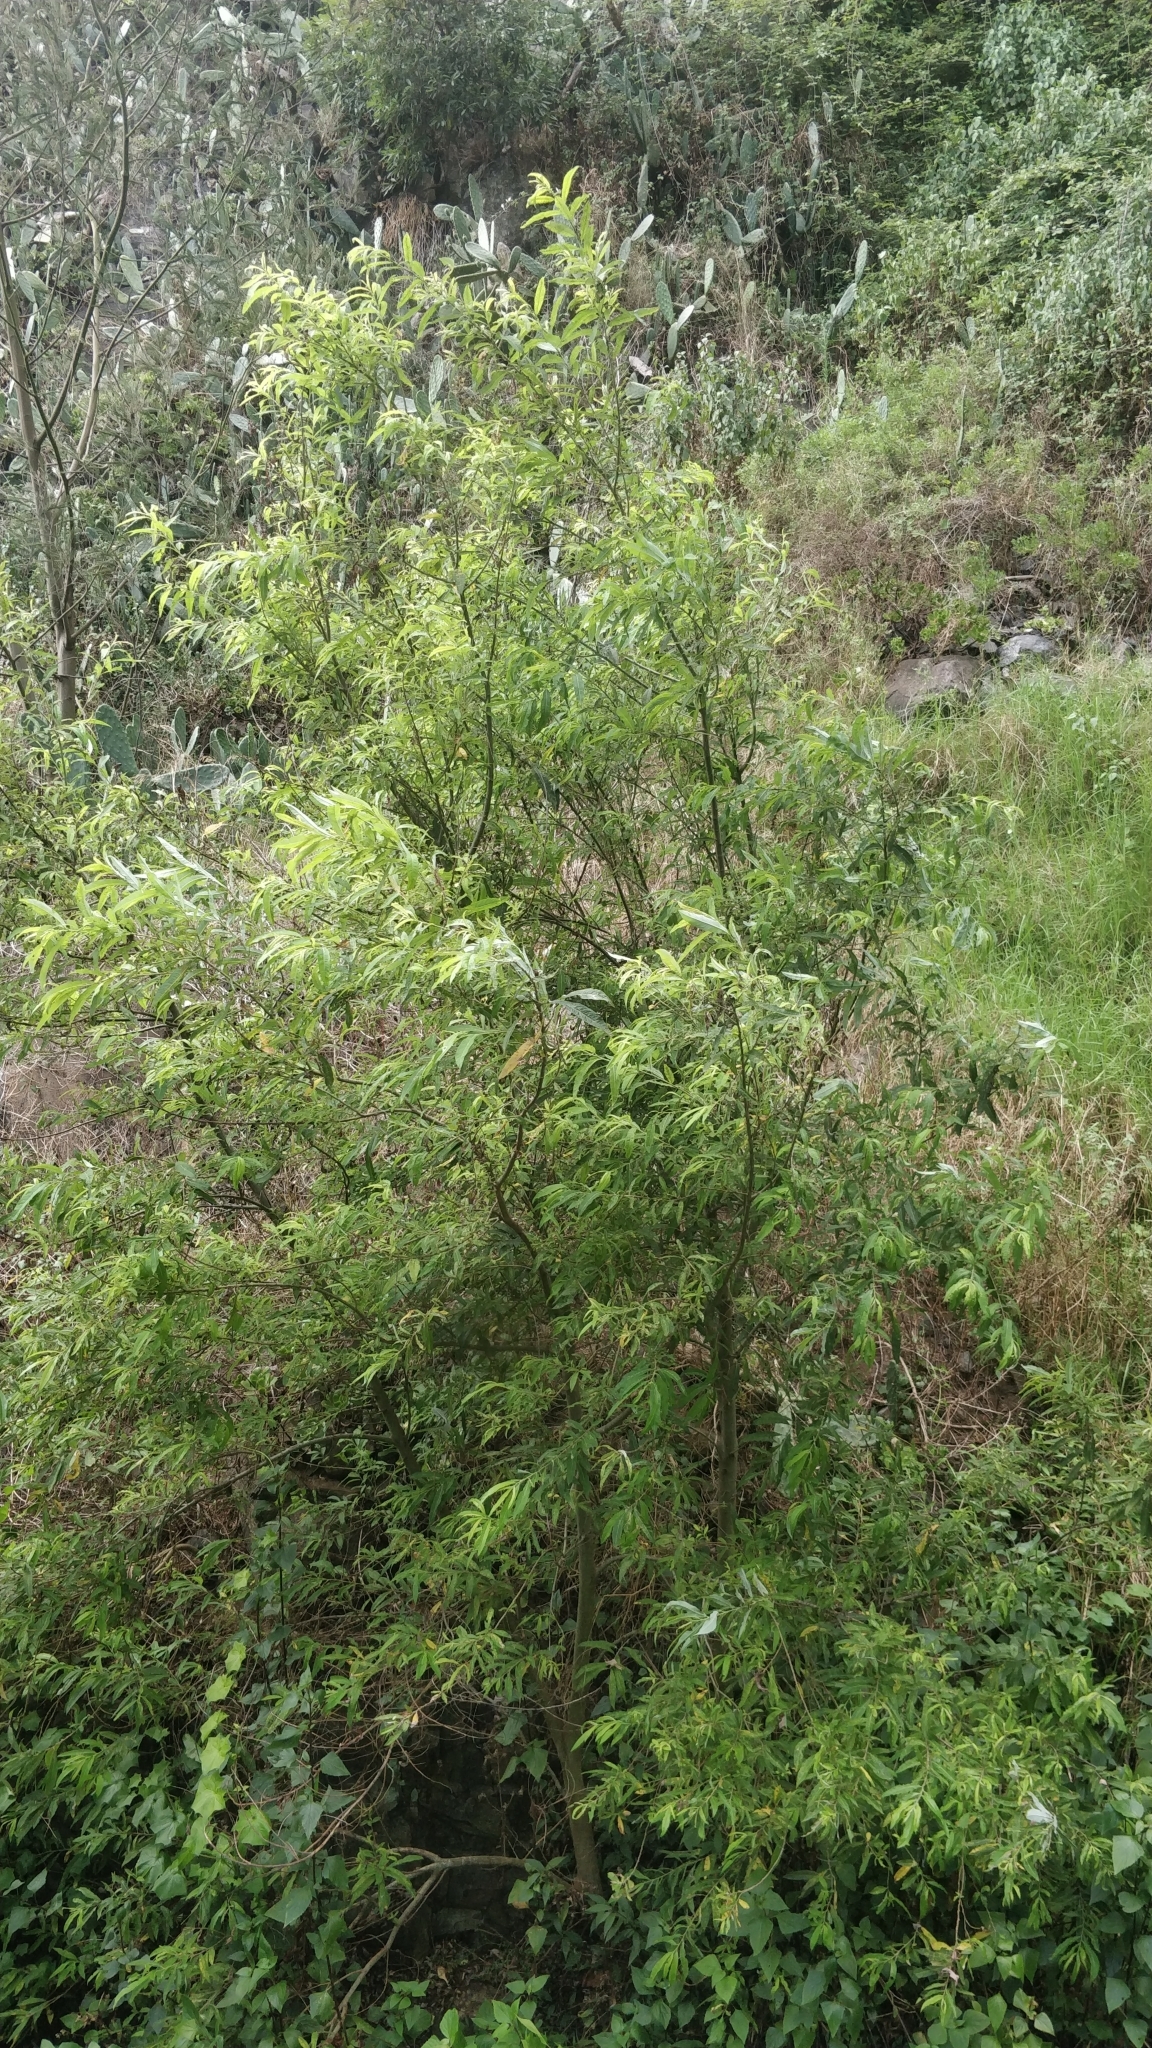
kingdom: Plantae
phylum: Tracheophyta
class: Magnoliopsida
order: Malpighiales
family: Salicaceae
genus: Salix
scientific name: Salix canariensis
